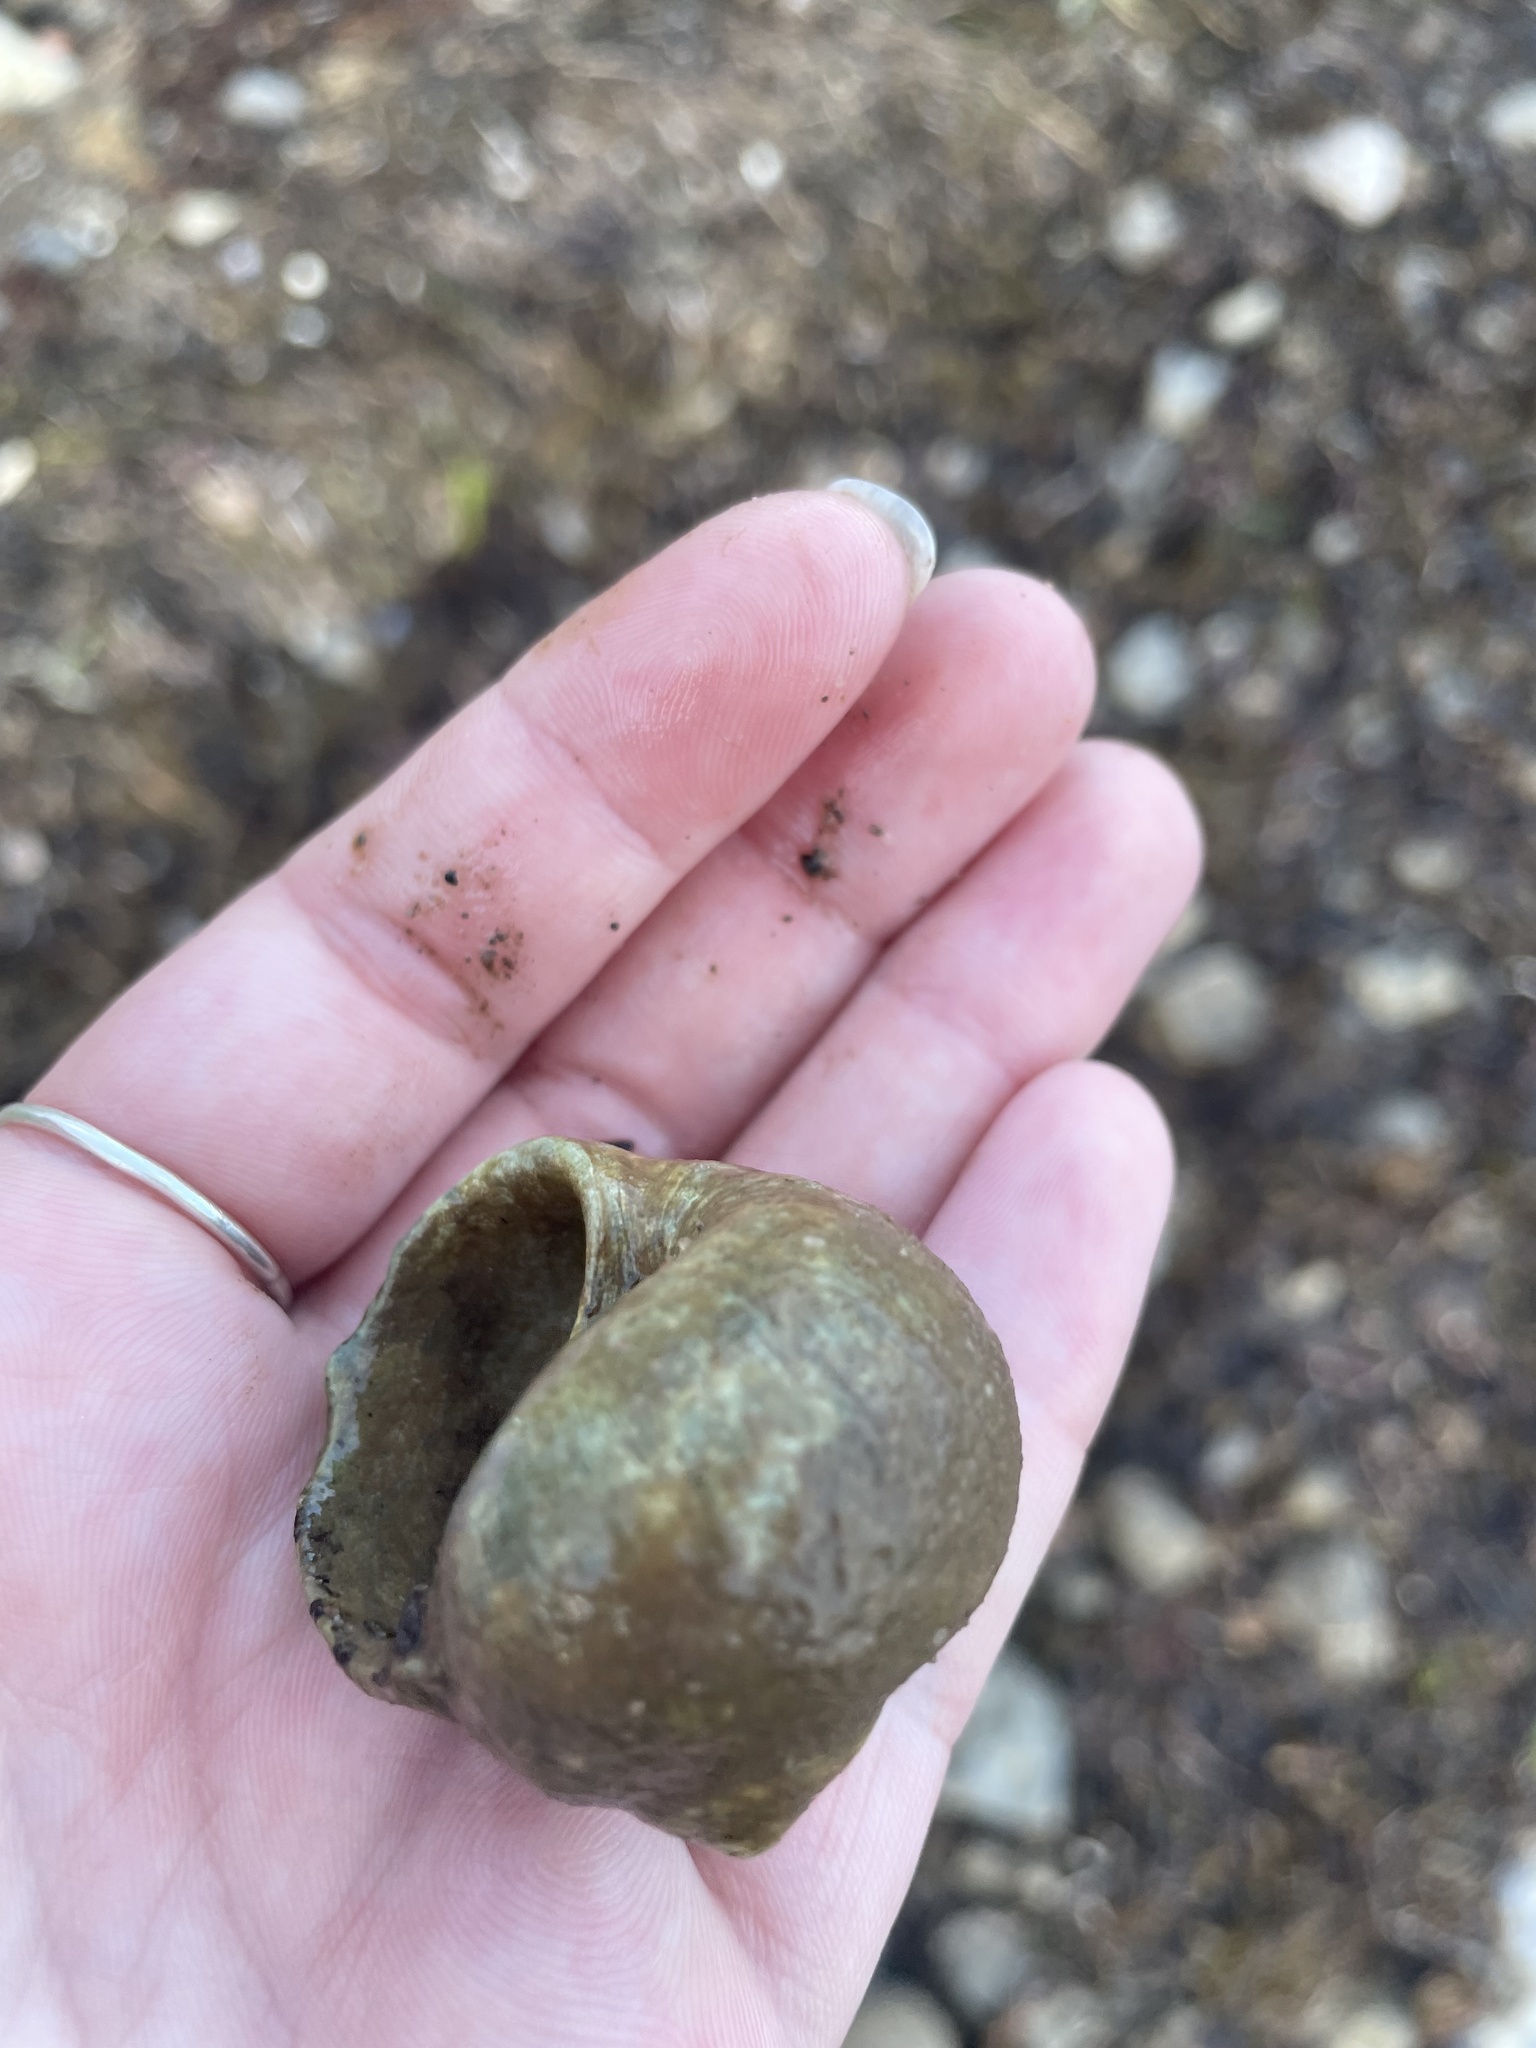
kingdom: Animalia
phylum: Mollusca
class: Gastropoda
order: Littorinimorpha
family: Naticidae
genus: Euspira
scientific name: Euspira heros
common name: Common northern moonsnail
